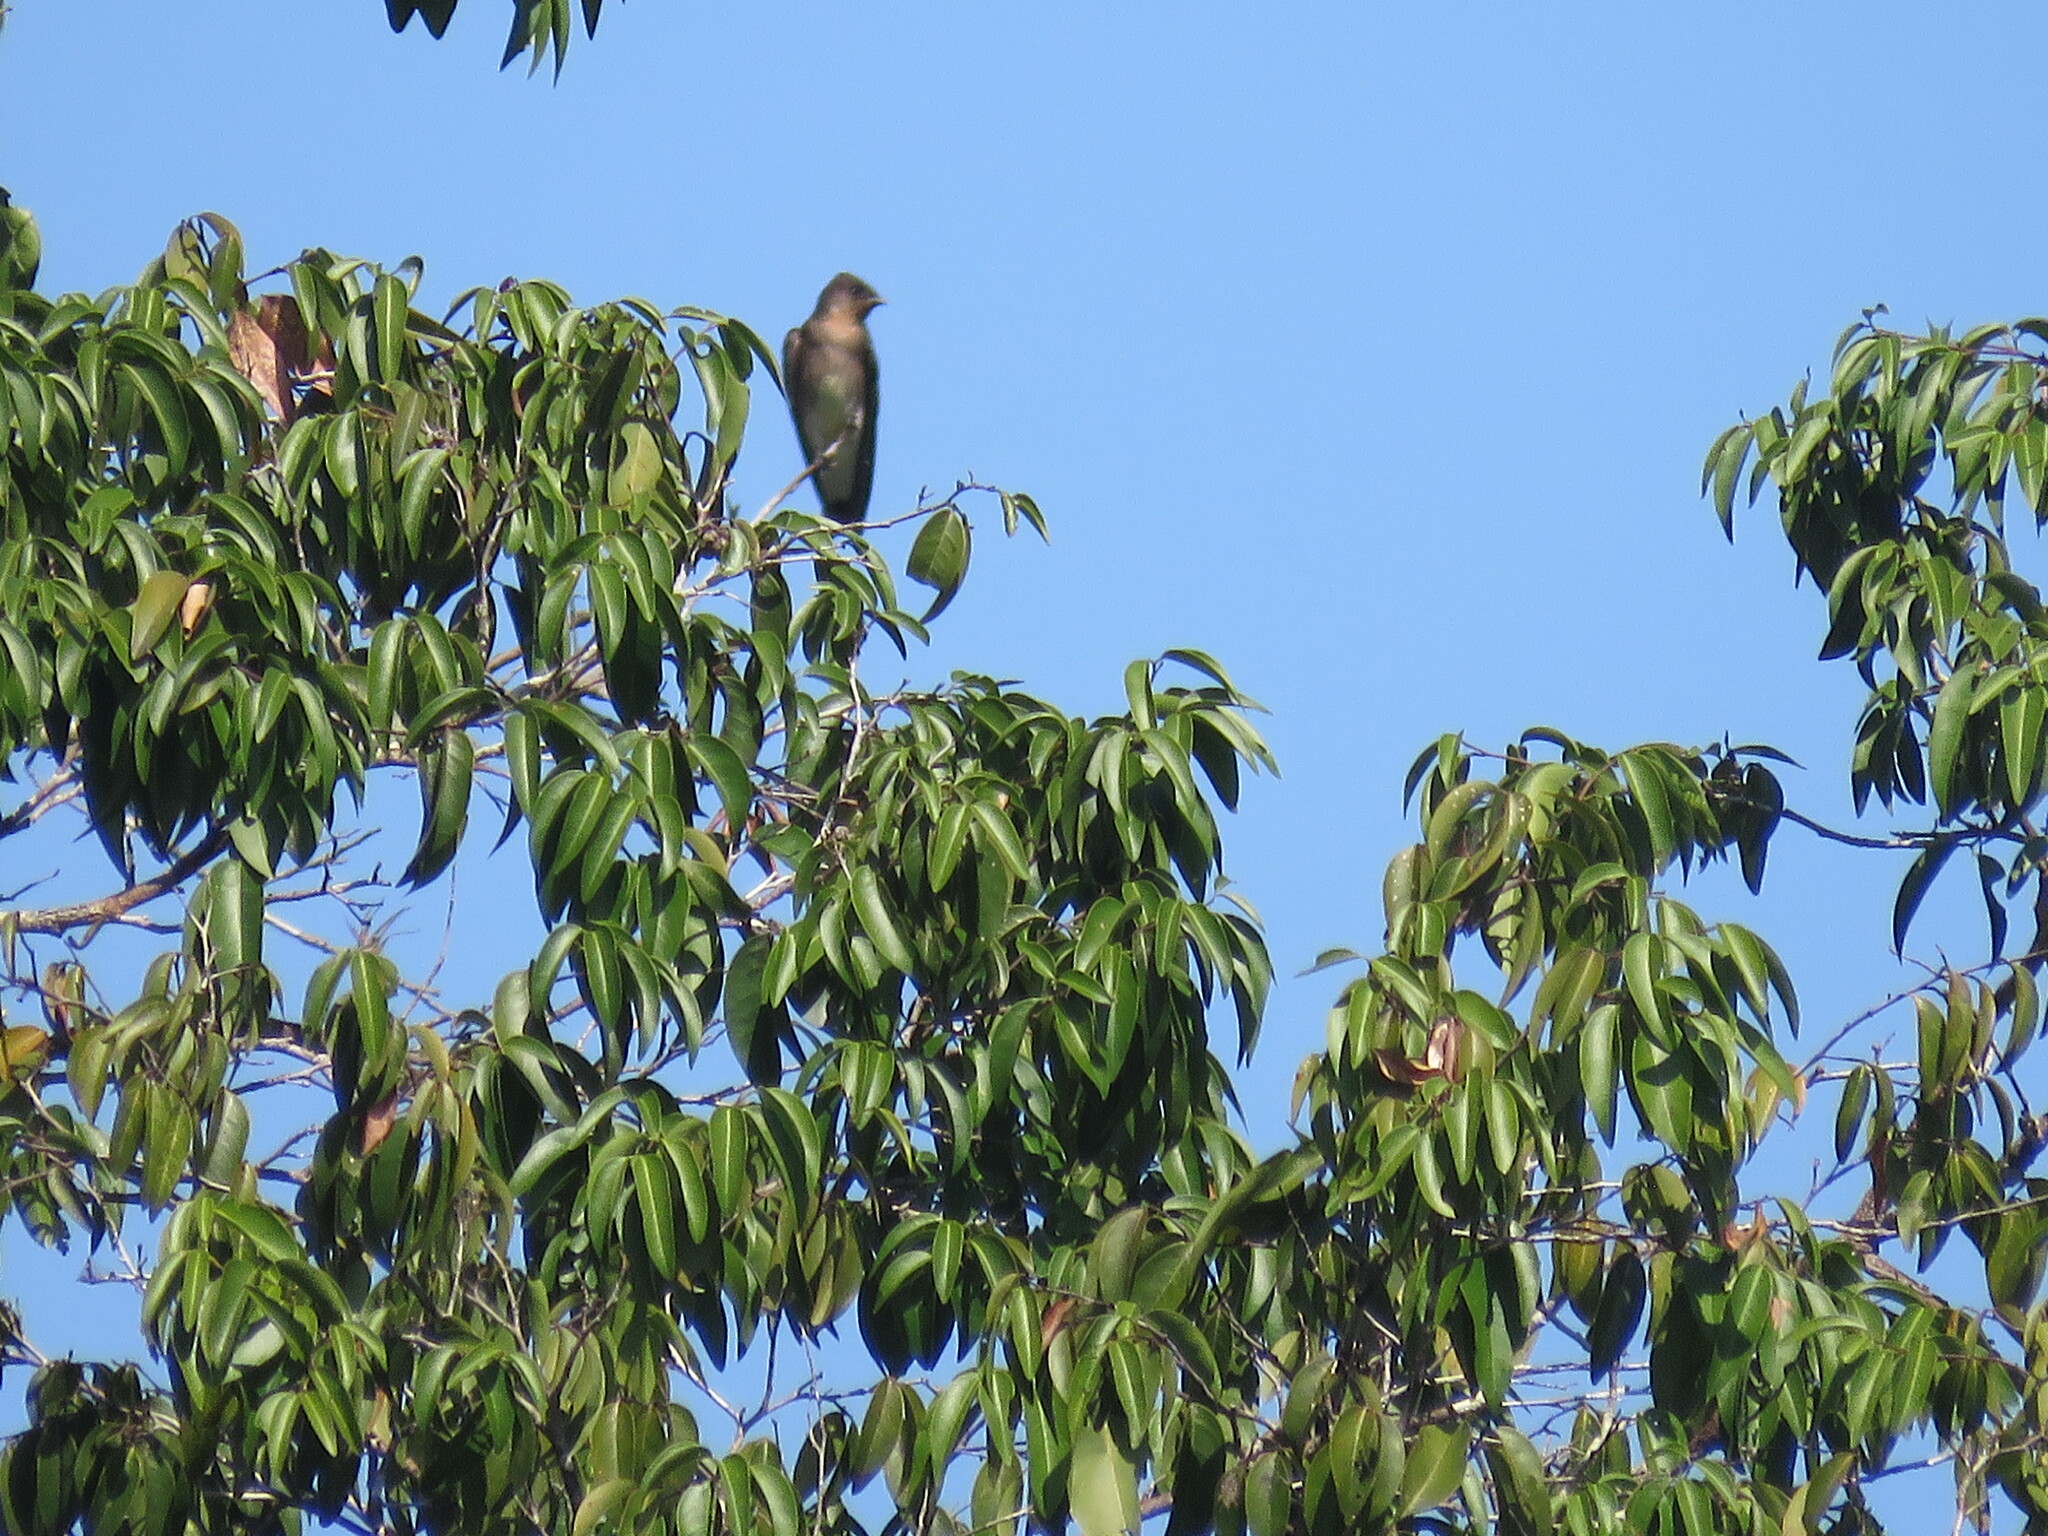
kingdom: Animalia
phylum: Chordata
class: Aves
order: Passeriformes
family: Hirundinidae
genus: Stelgidopteryx
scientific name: Stelgidopteryx ruficollis
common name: Southern rough-winged swallow
